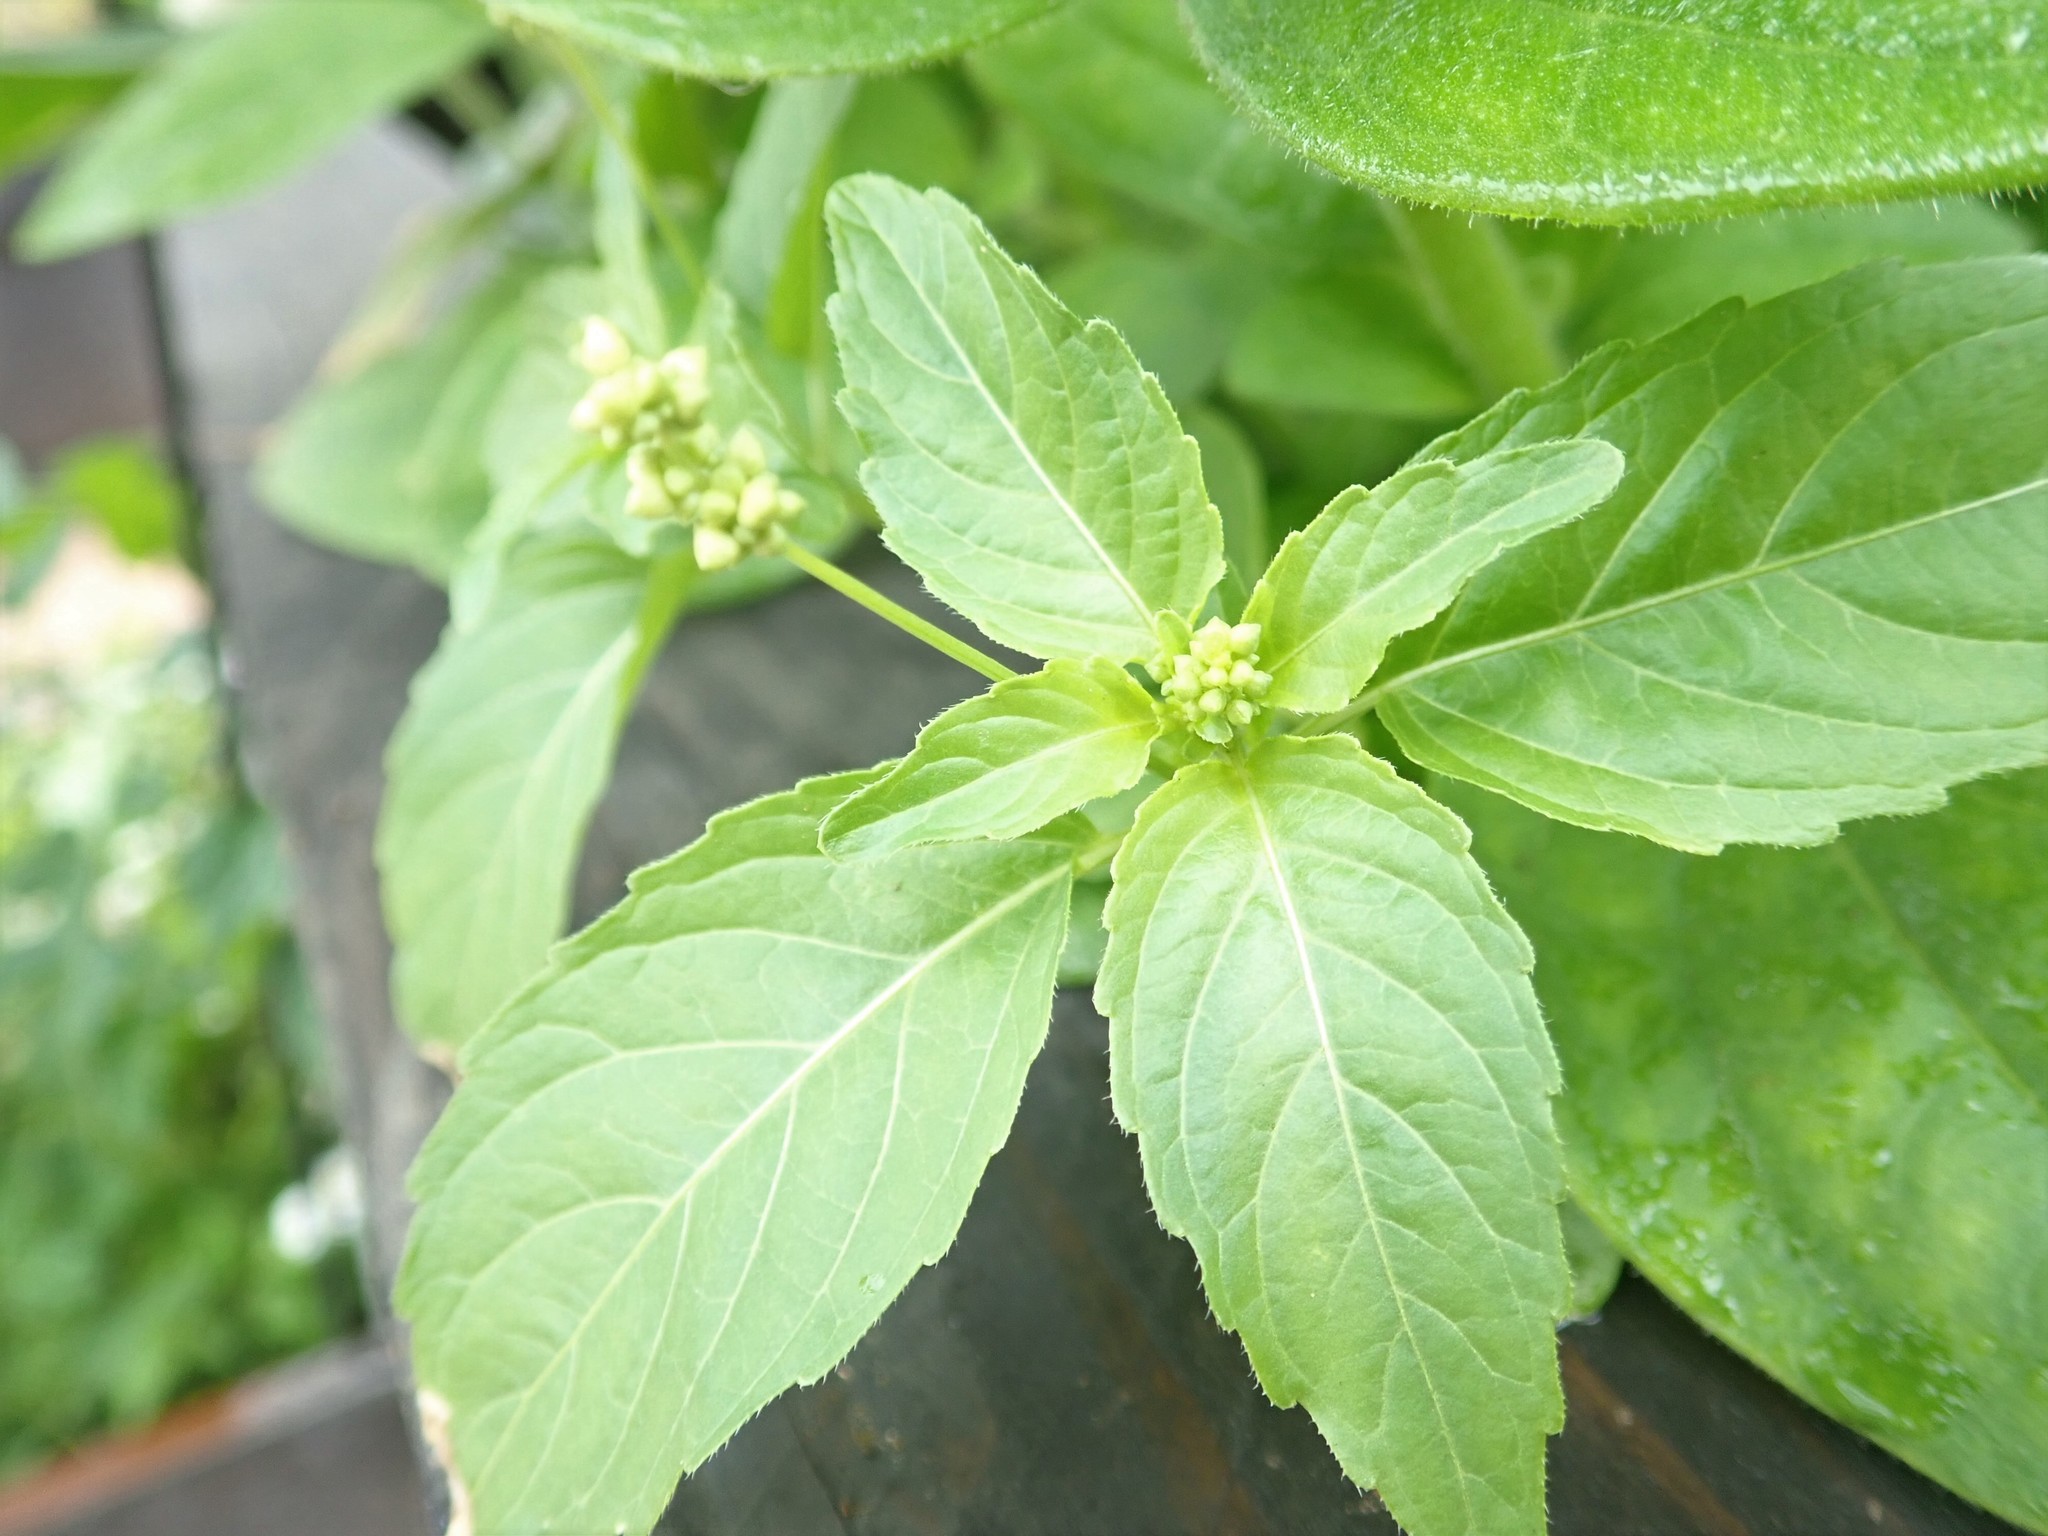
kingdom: Plantae
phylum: Tracheophyta
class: Magnoliopsida
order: Malpighiales
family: Euphorbiaceae
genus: Mercurialis
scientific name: Mercurialis annua
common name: Annual mercury
